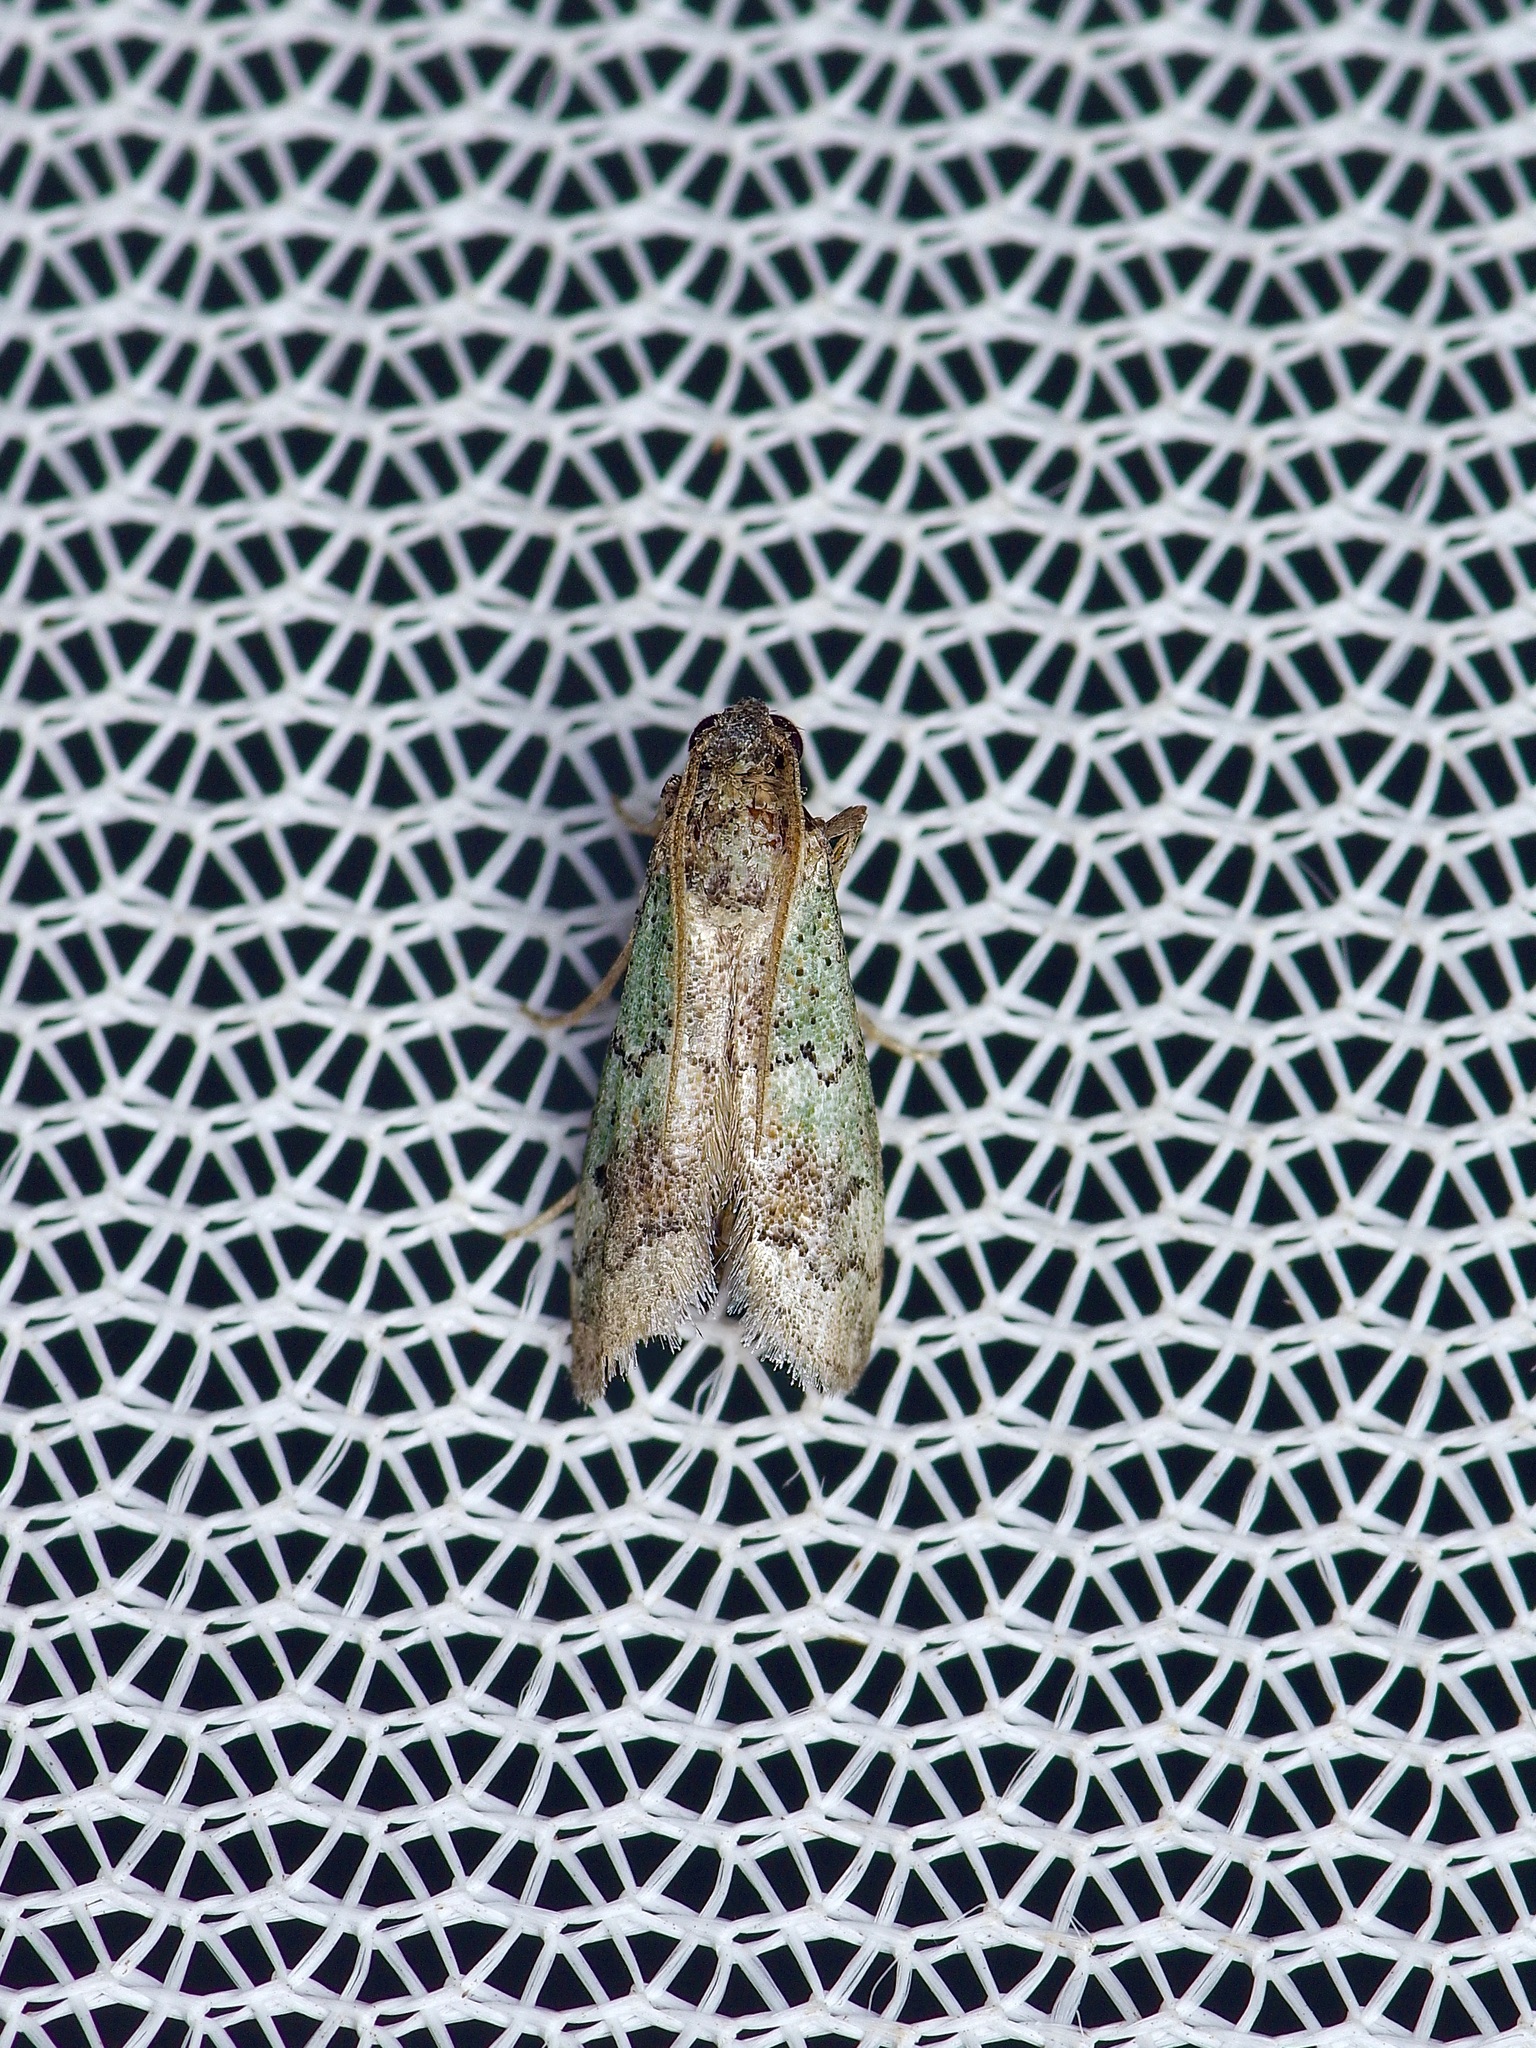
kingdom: Animalia
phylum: Arthropoda
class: Insecta
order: Lepidoptera
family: Pyralidae
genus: Cacotherapia
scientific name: Cacotherapia flexilinealis
